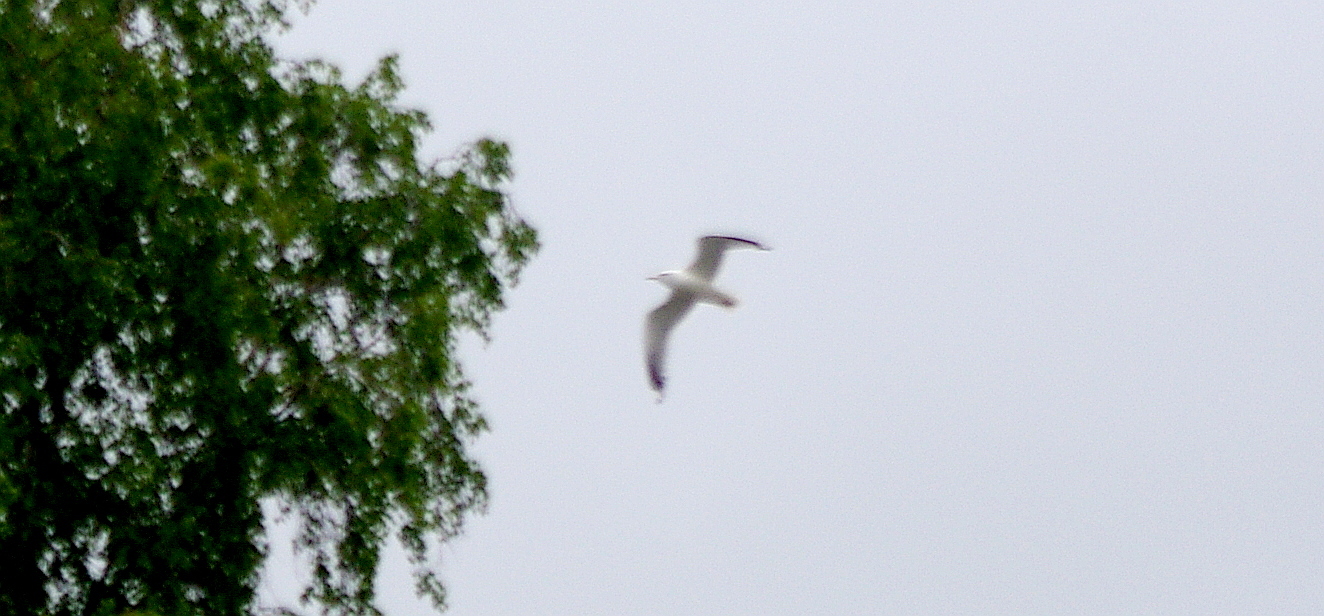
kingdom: Animalia
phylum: Chordata
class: Aves
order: Charadriiformes
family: Laridae
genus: Larus
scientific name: Larus canus
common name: Mew gull
